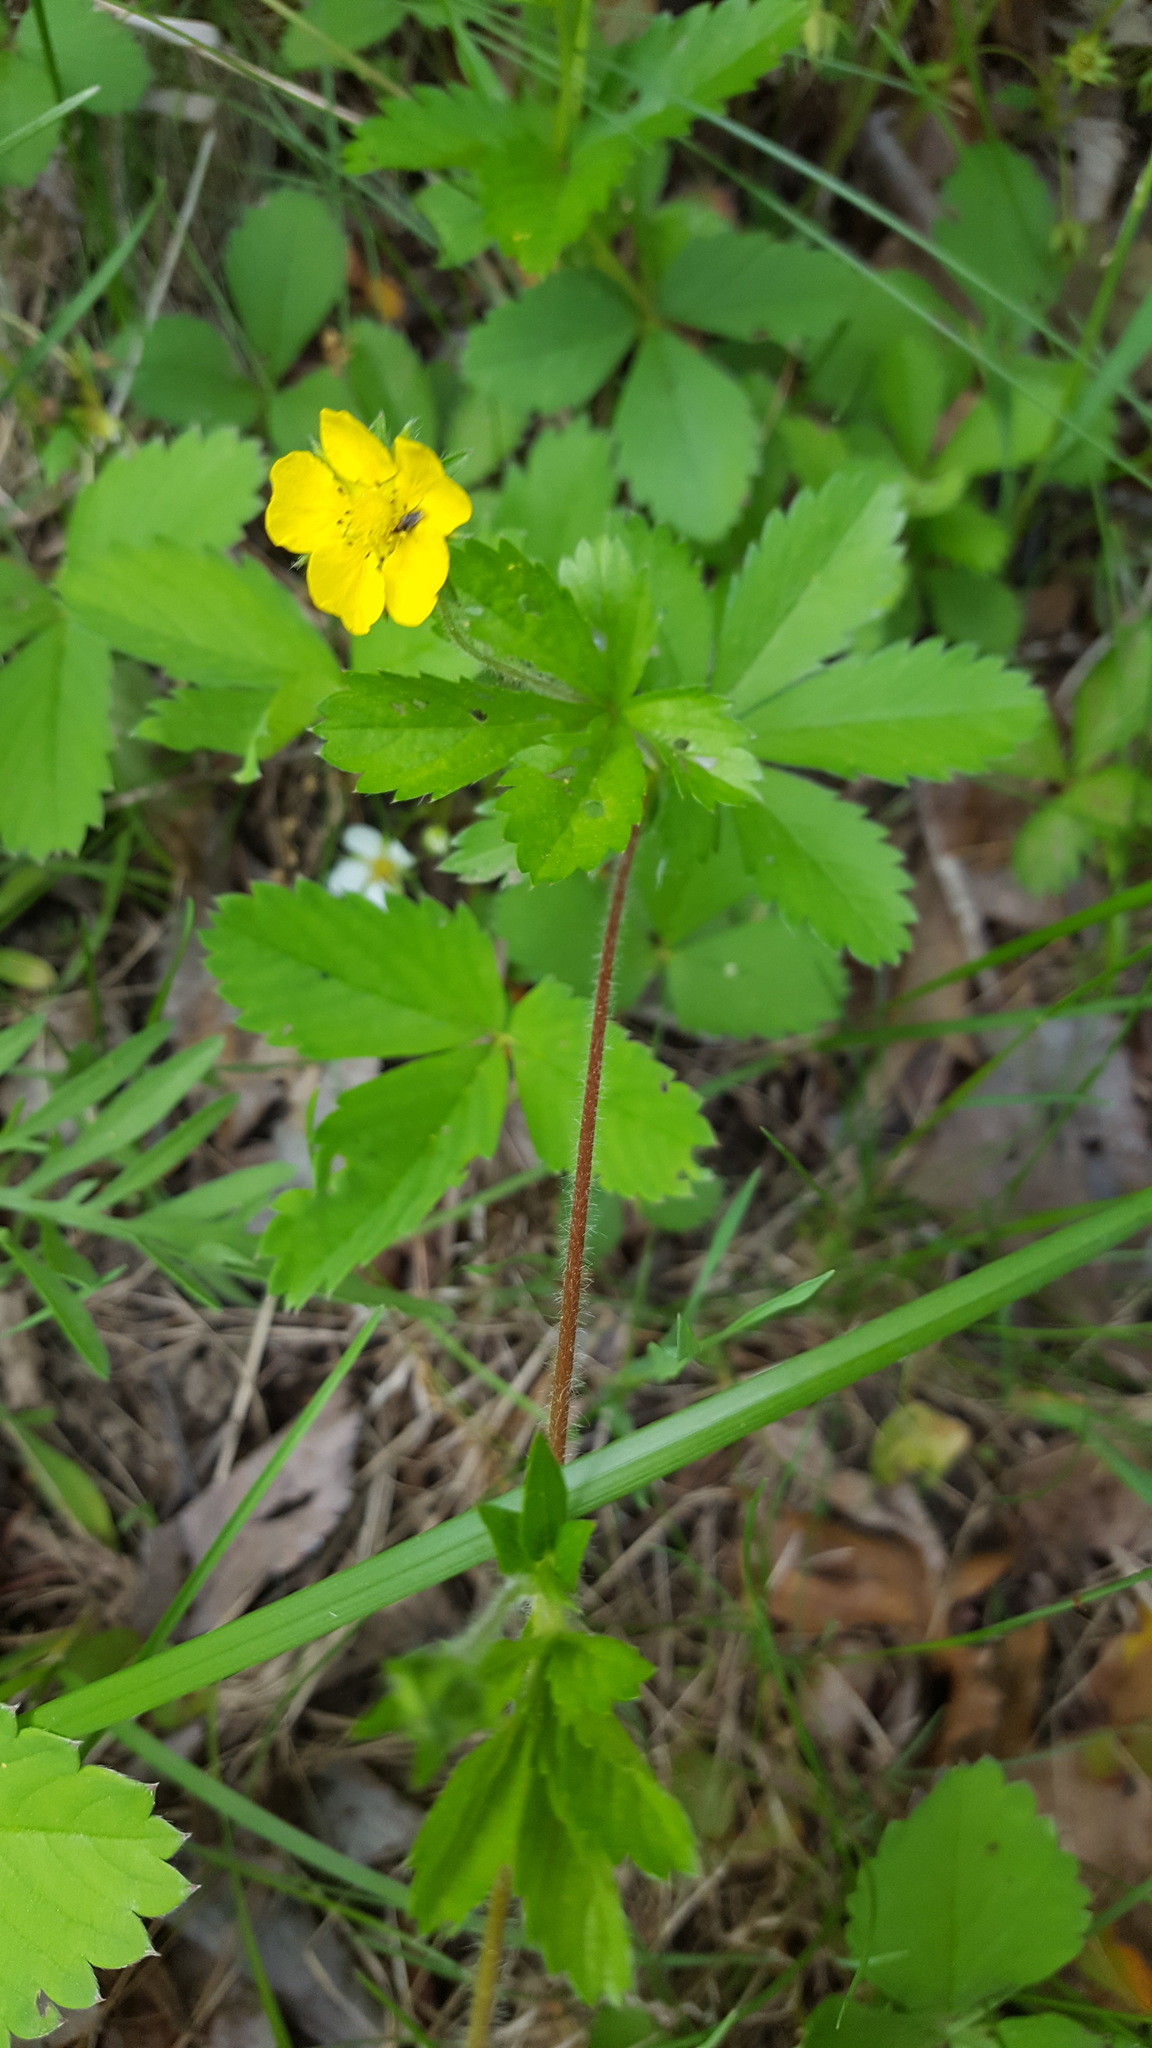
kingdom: Plantae
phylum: Tracheophyta
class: Magnoliopsida
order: Rosales
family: Rosaceae
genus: Potentilla
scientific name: Potentilla simplex
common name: Old field cinquefoil
